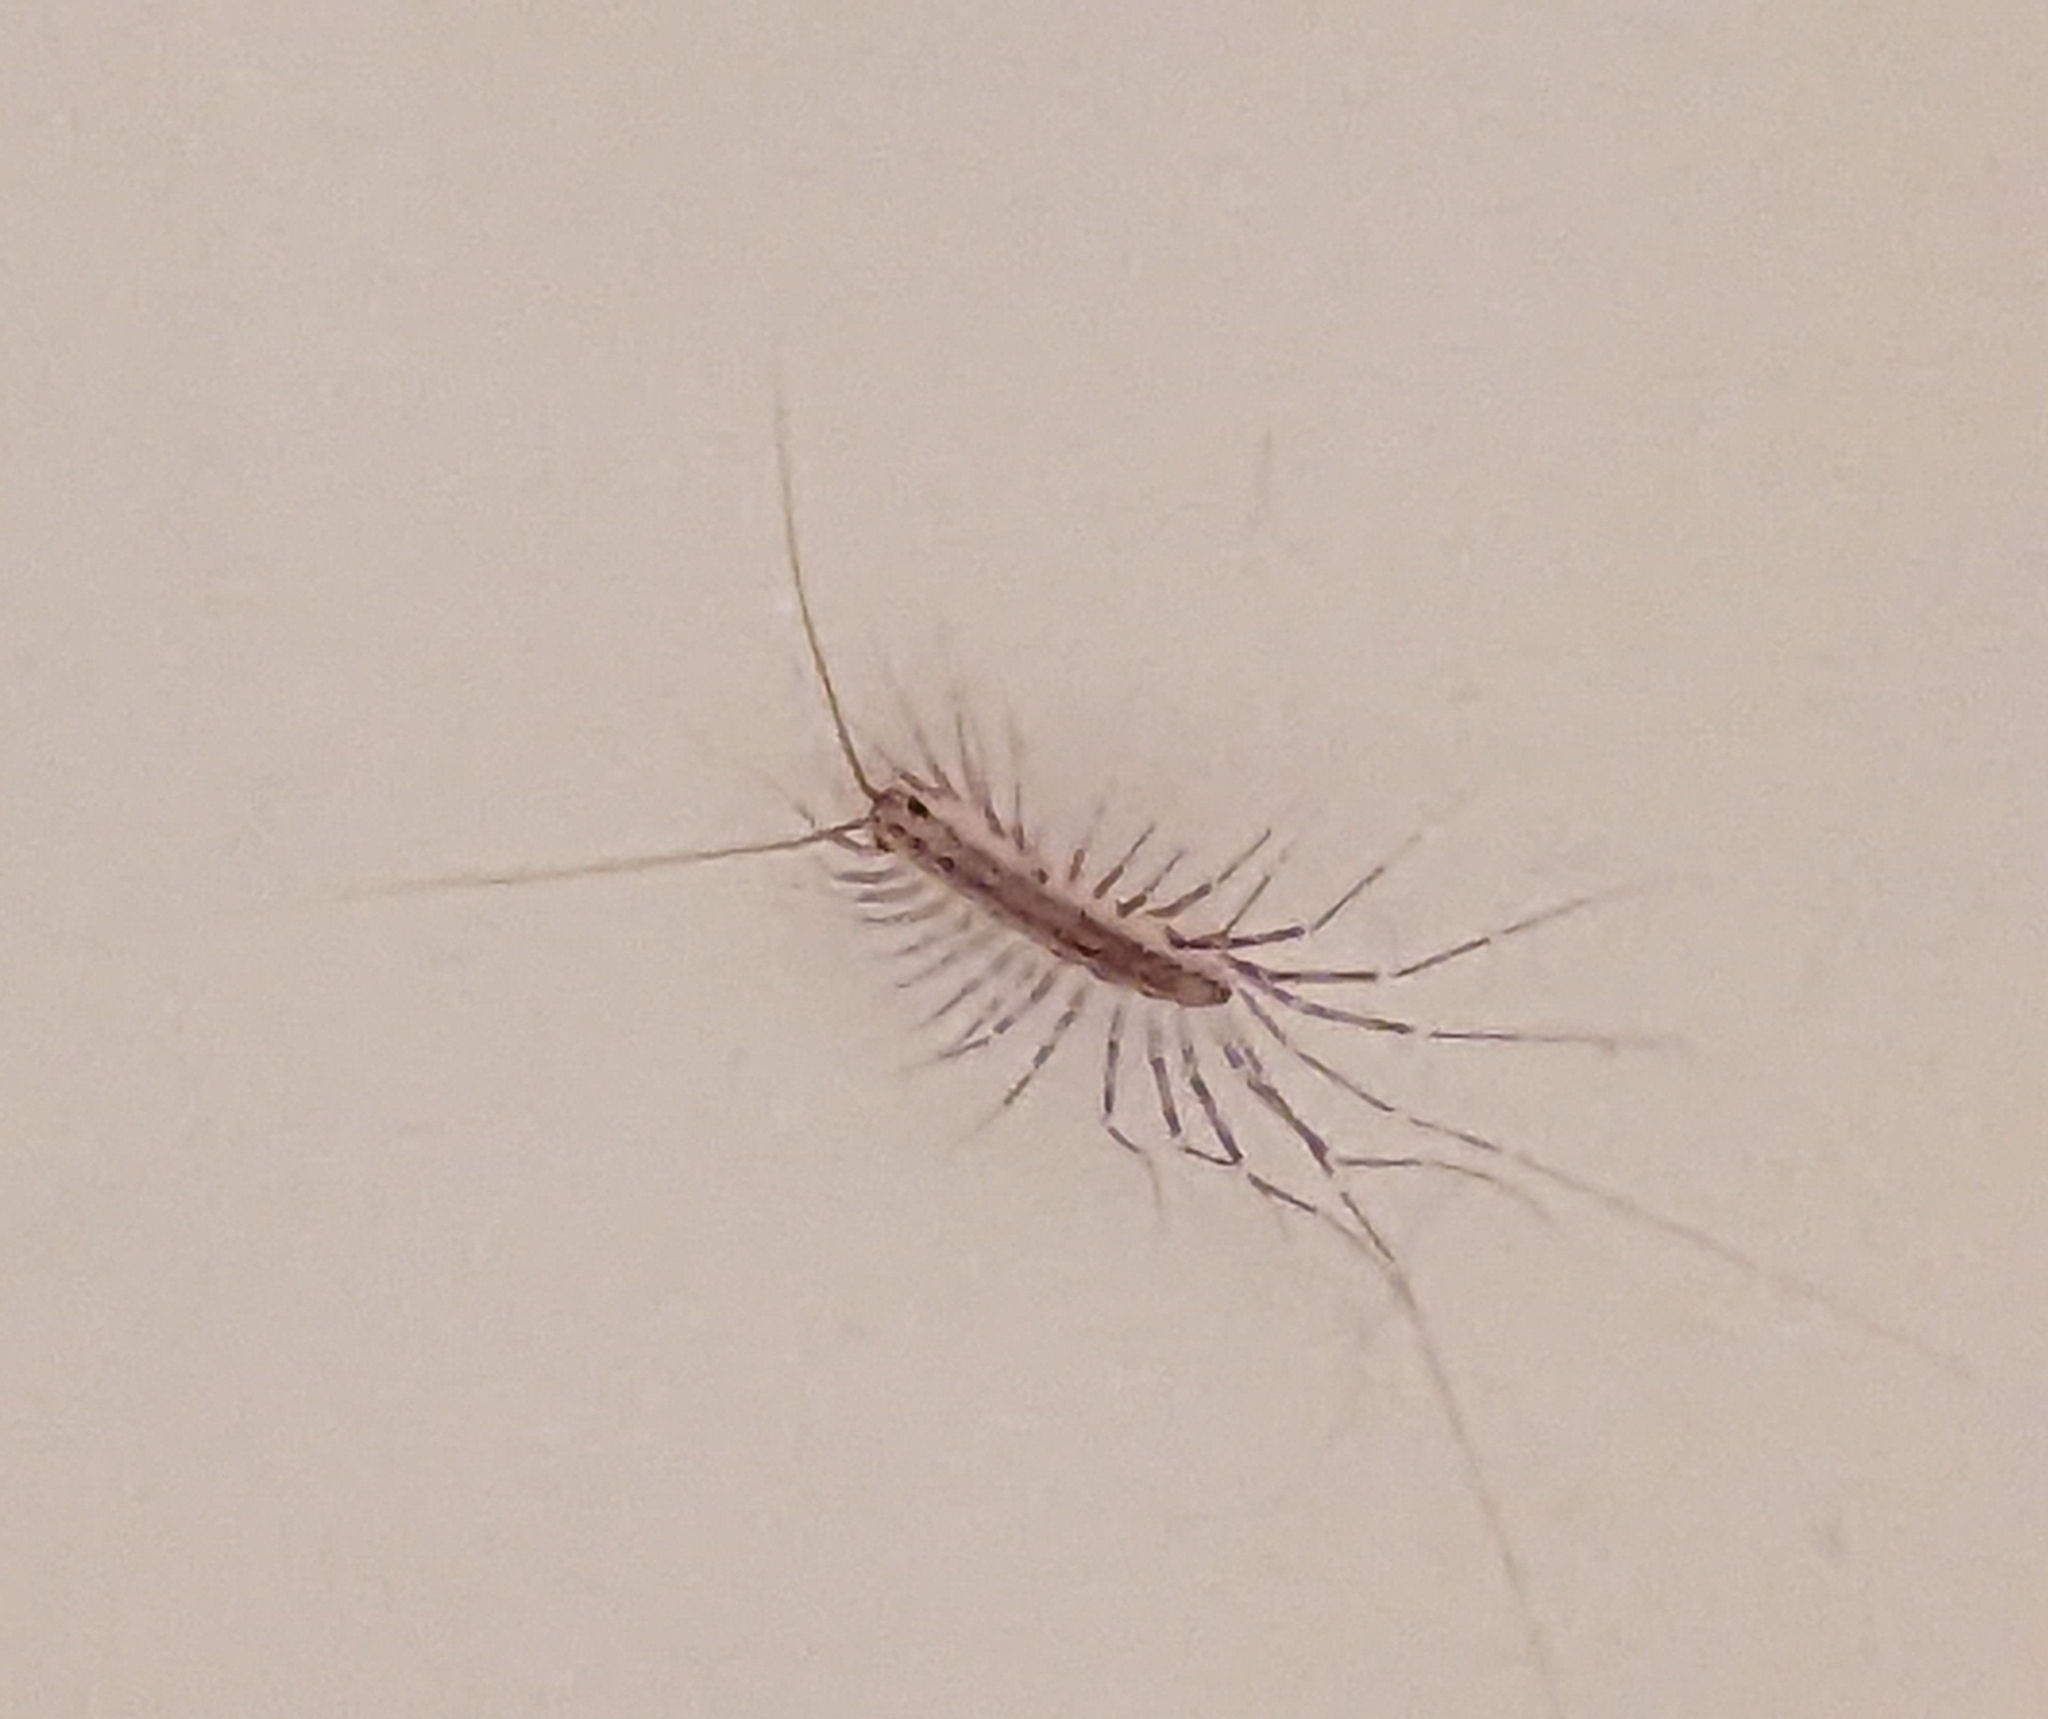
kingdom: Animalia
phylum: Arthropoda
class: Chilopoda
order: Scutigeromorpha
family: Scutigeridae
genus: Scutigera
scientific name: Scutigera coleoptrata
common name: House centipede
